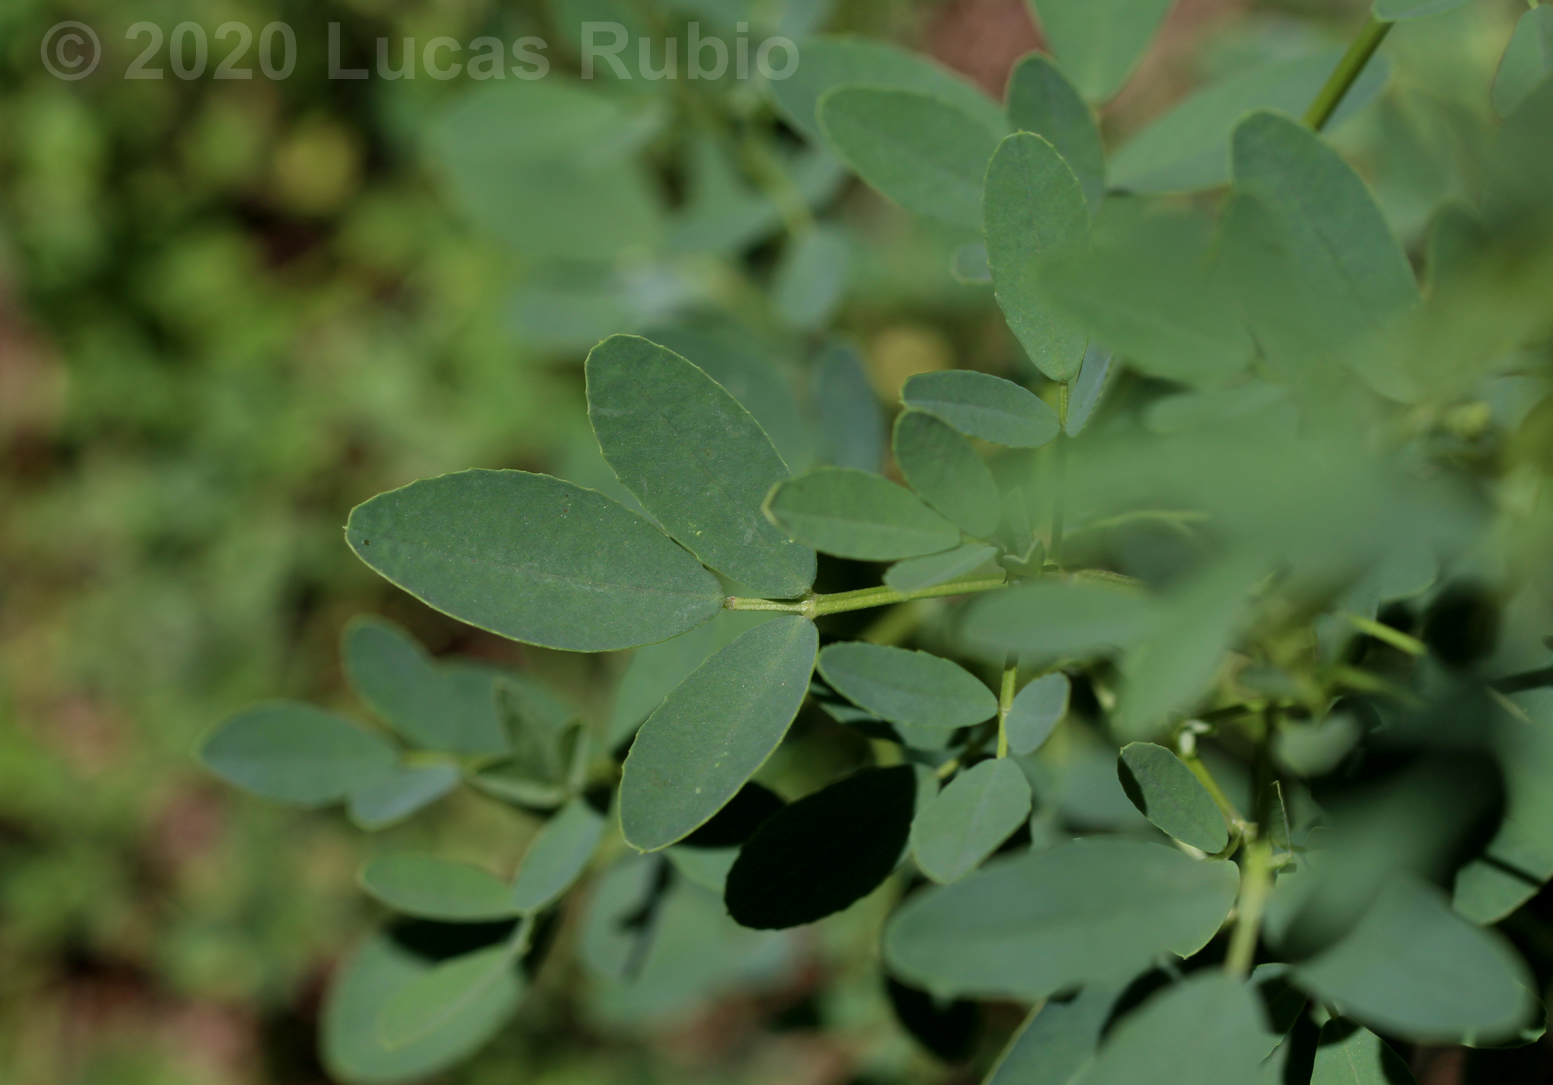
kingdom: Plantae
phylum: Tracheophyta
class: Magnoliopsida
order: Fabales
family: Fabaceae
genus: Melilotus
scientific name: Melilotus albus
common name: White melilot
